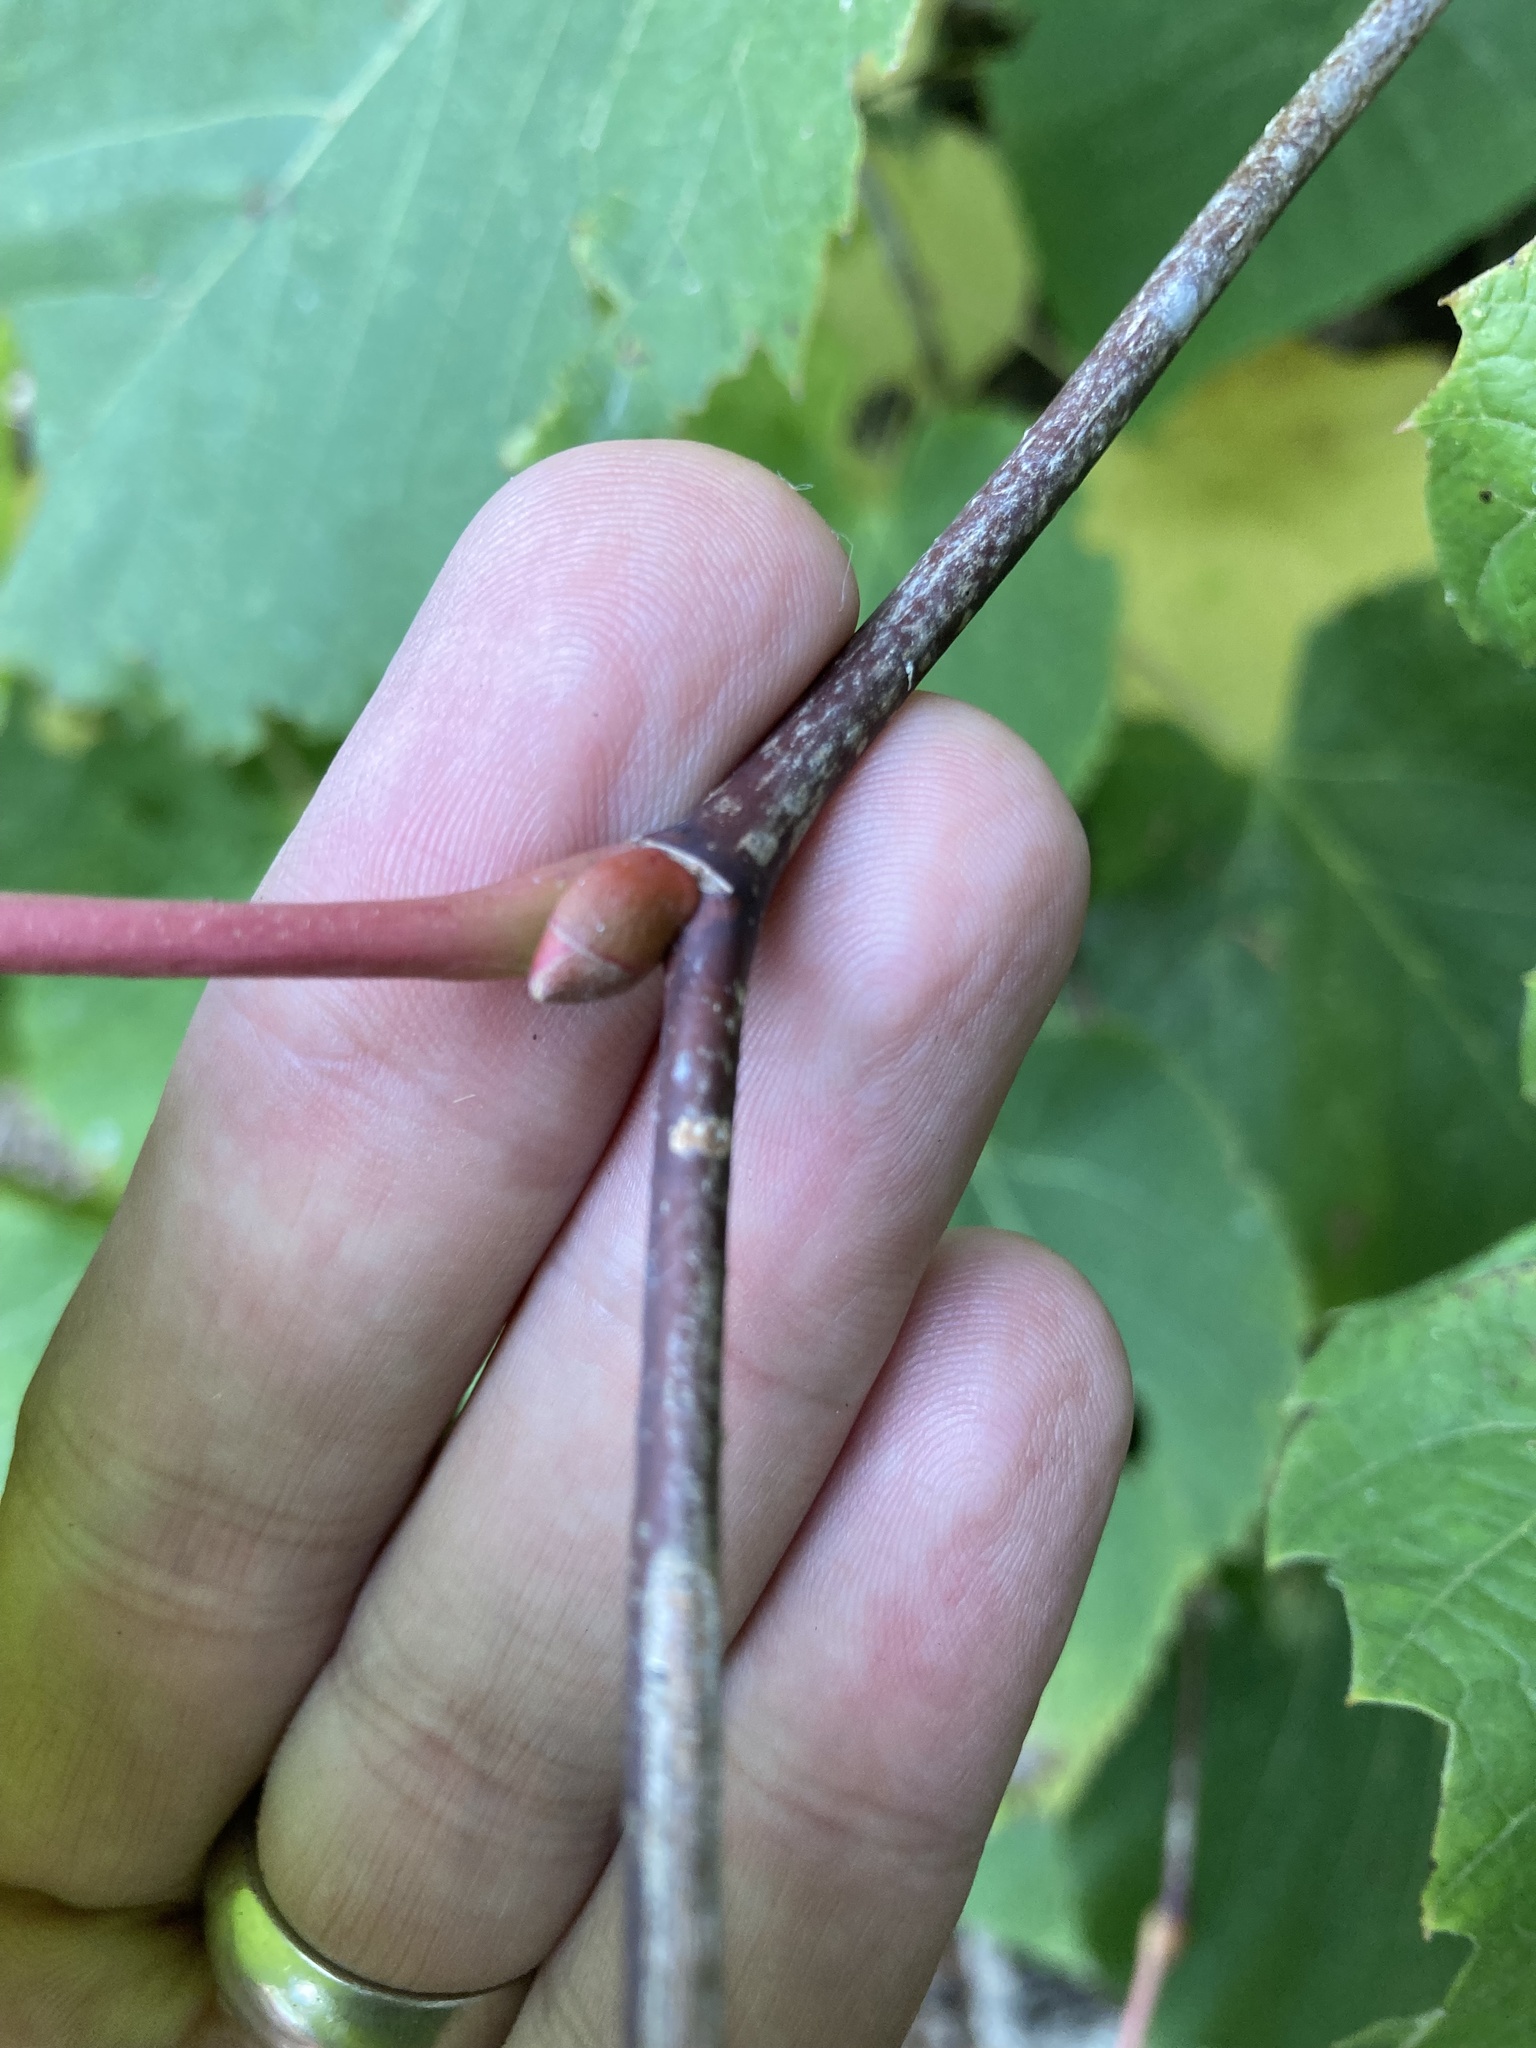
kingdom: Plantae
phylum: Tracheophyta
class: Magnoliopsida
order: Malvales
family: Malvaceae
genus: Tilia
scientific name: Tilia americana
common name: Basswood
